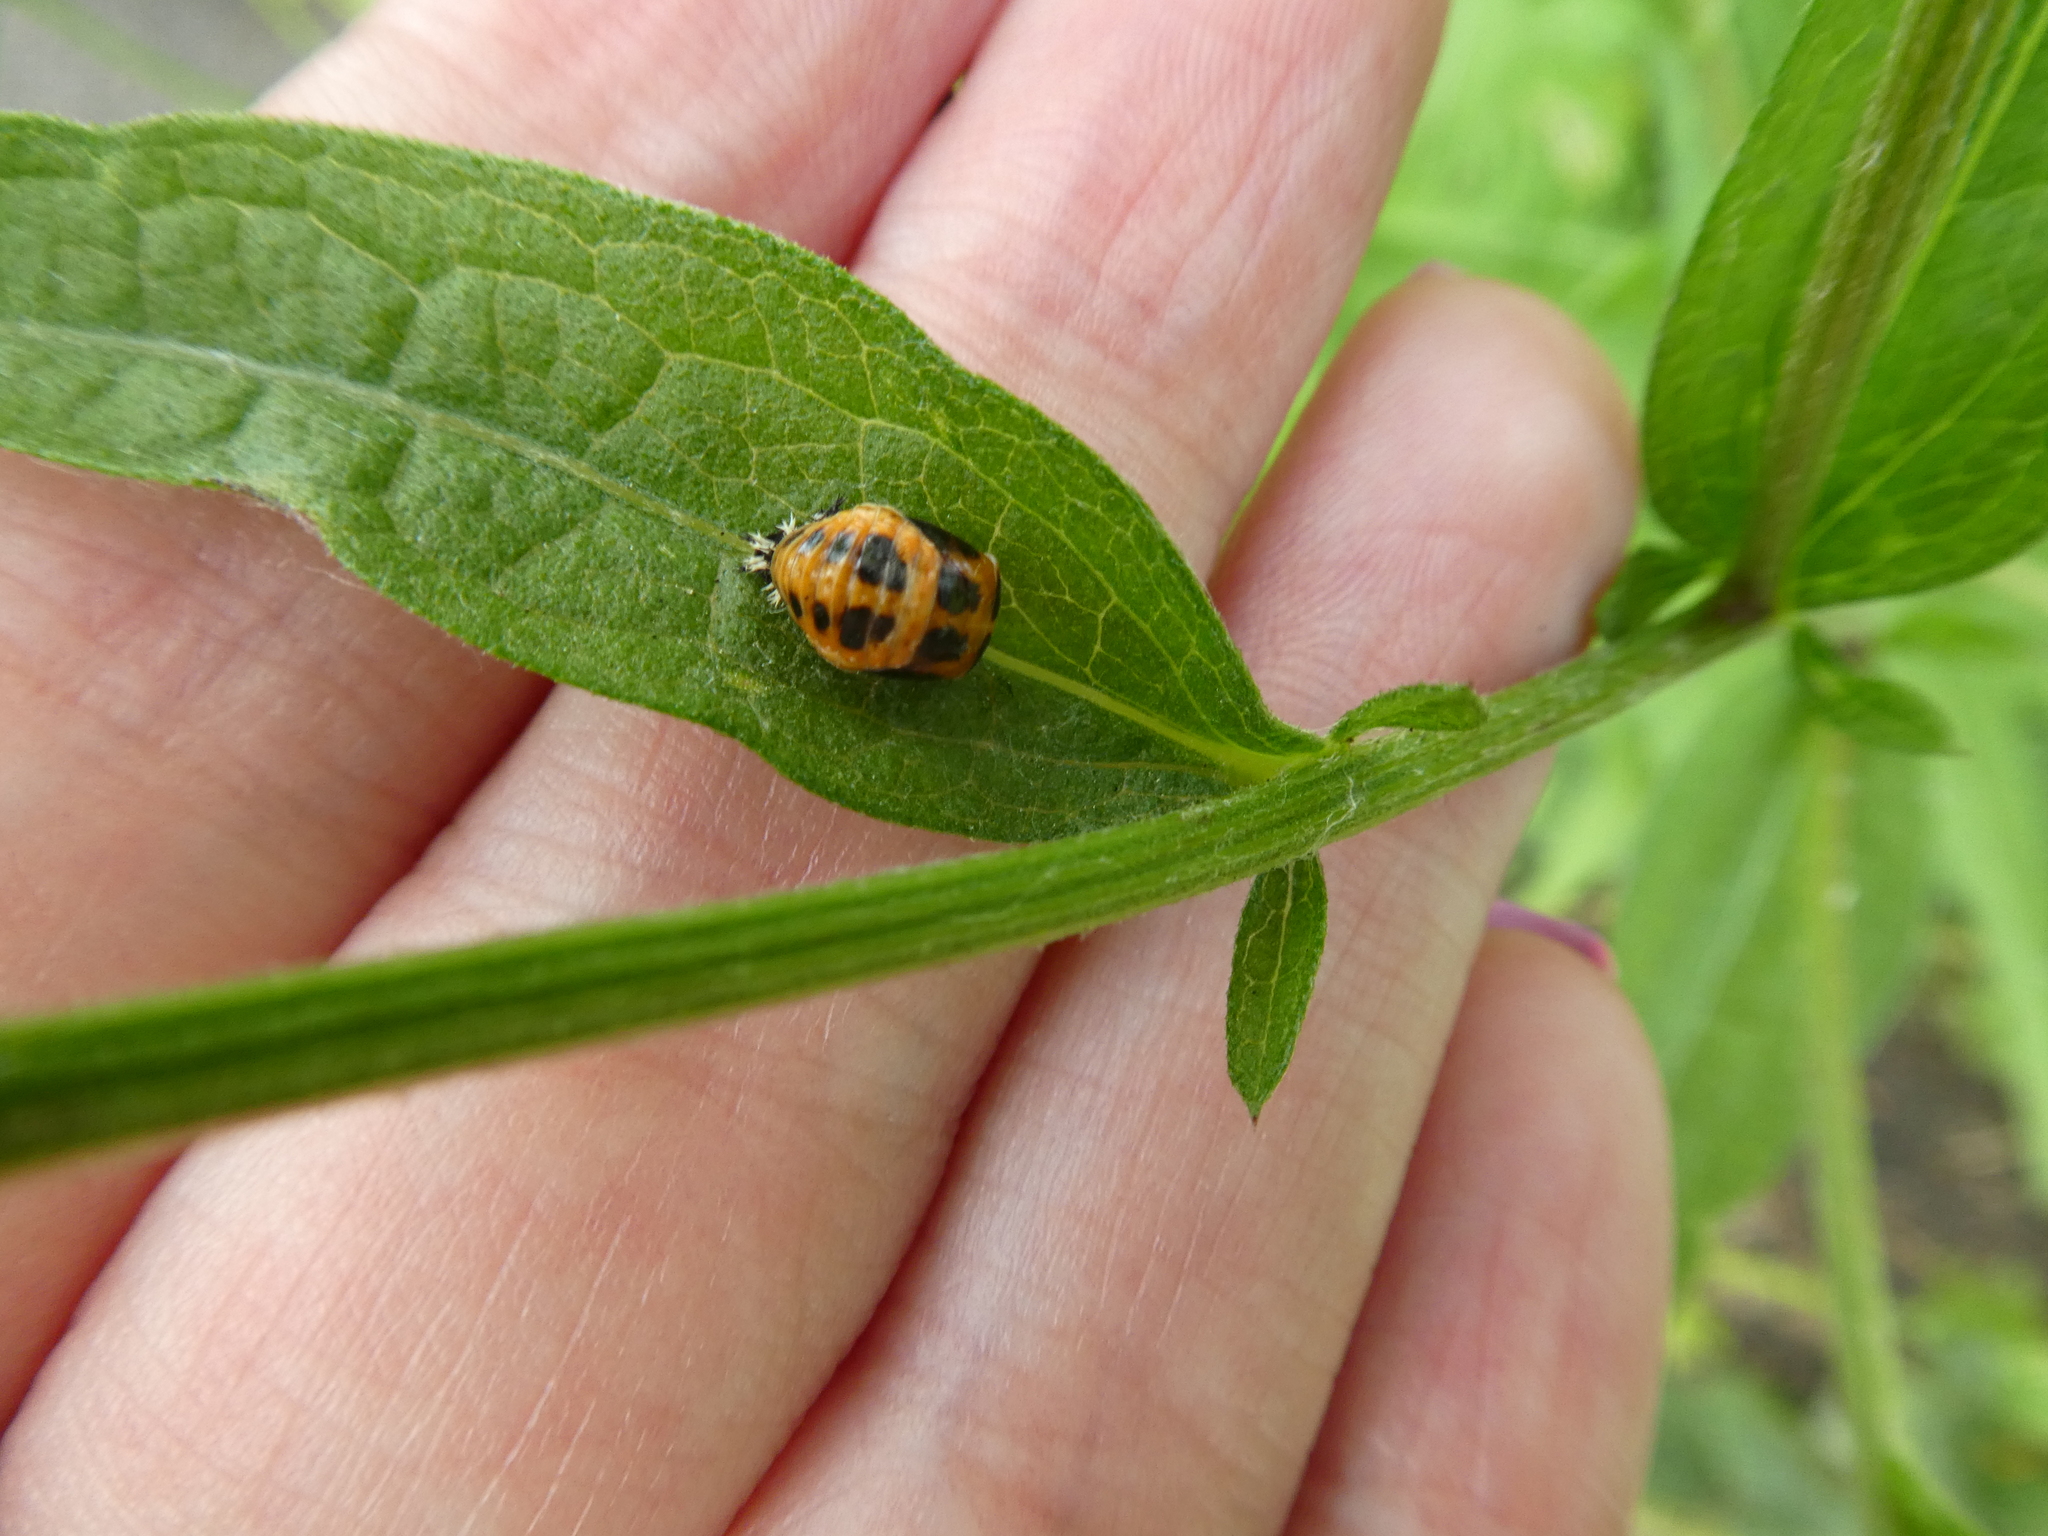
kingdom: Animalia
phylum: Arthropoda
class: Insecta
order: Coleoptera
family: Coccinellidae
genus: Harmonia
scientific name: Harmonia axyridis
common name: Harlequin ladybird
